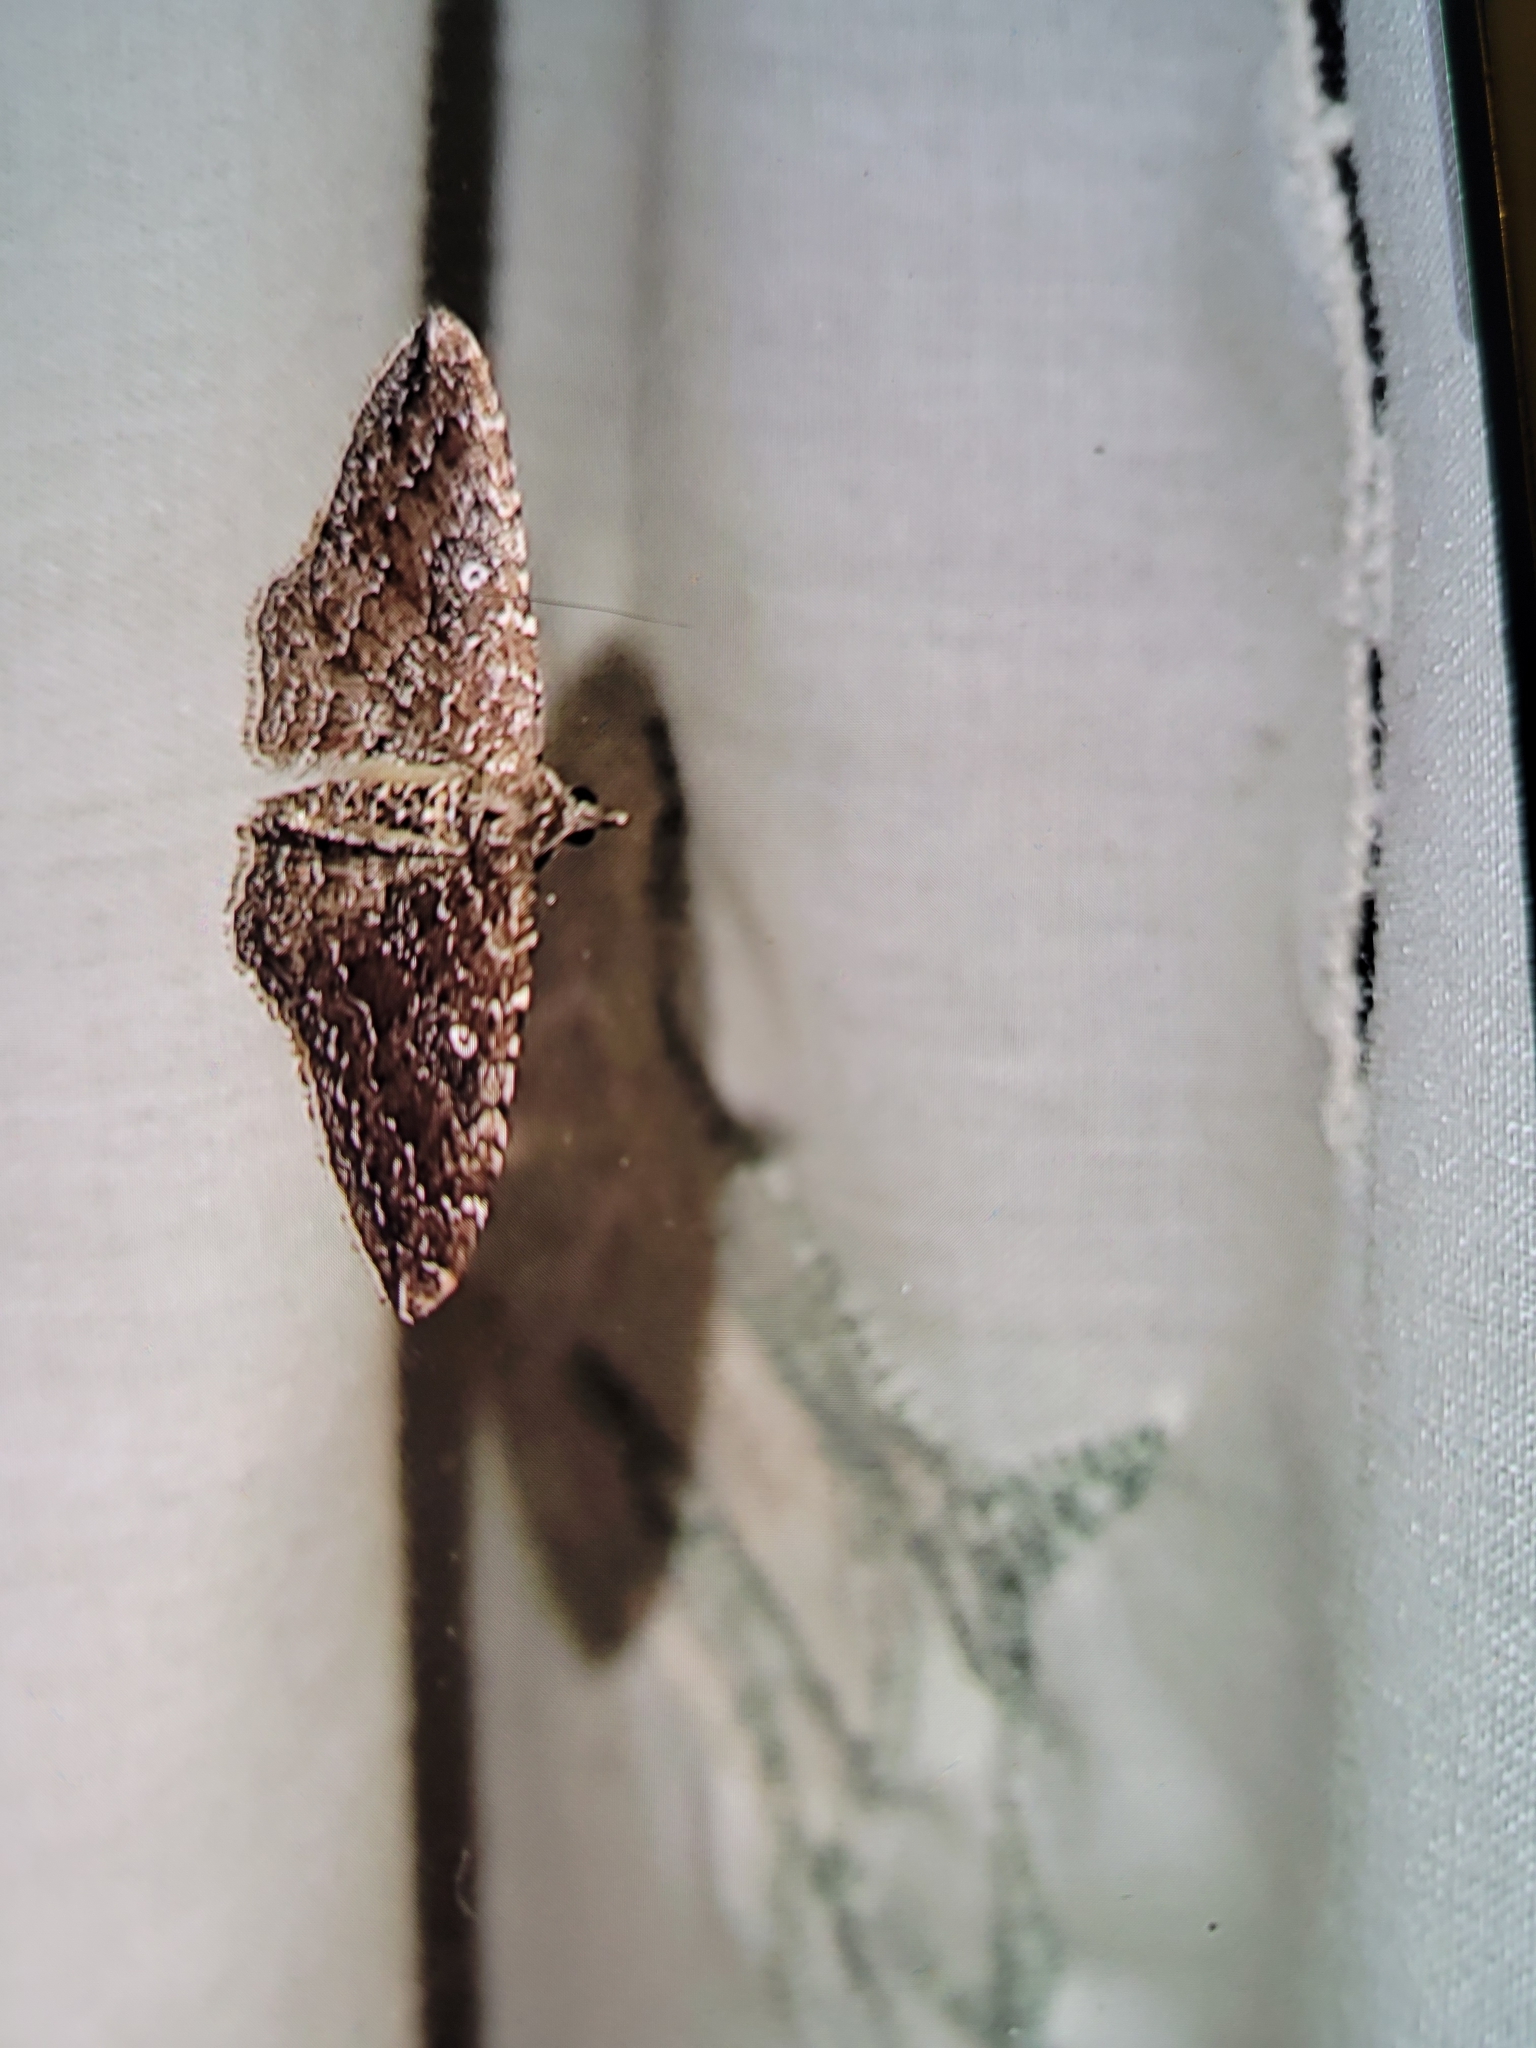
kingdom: Animalia
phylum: Arthropoda
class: Insecta
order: Lepidoptera
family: Geometridae
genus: Orthonama
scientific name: Orthonama obstipata
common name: The gem
